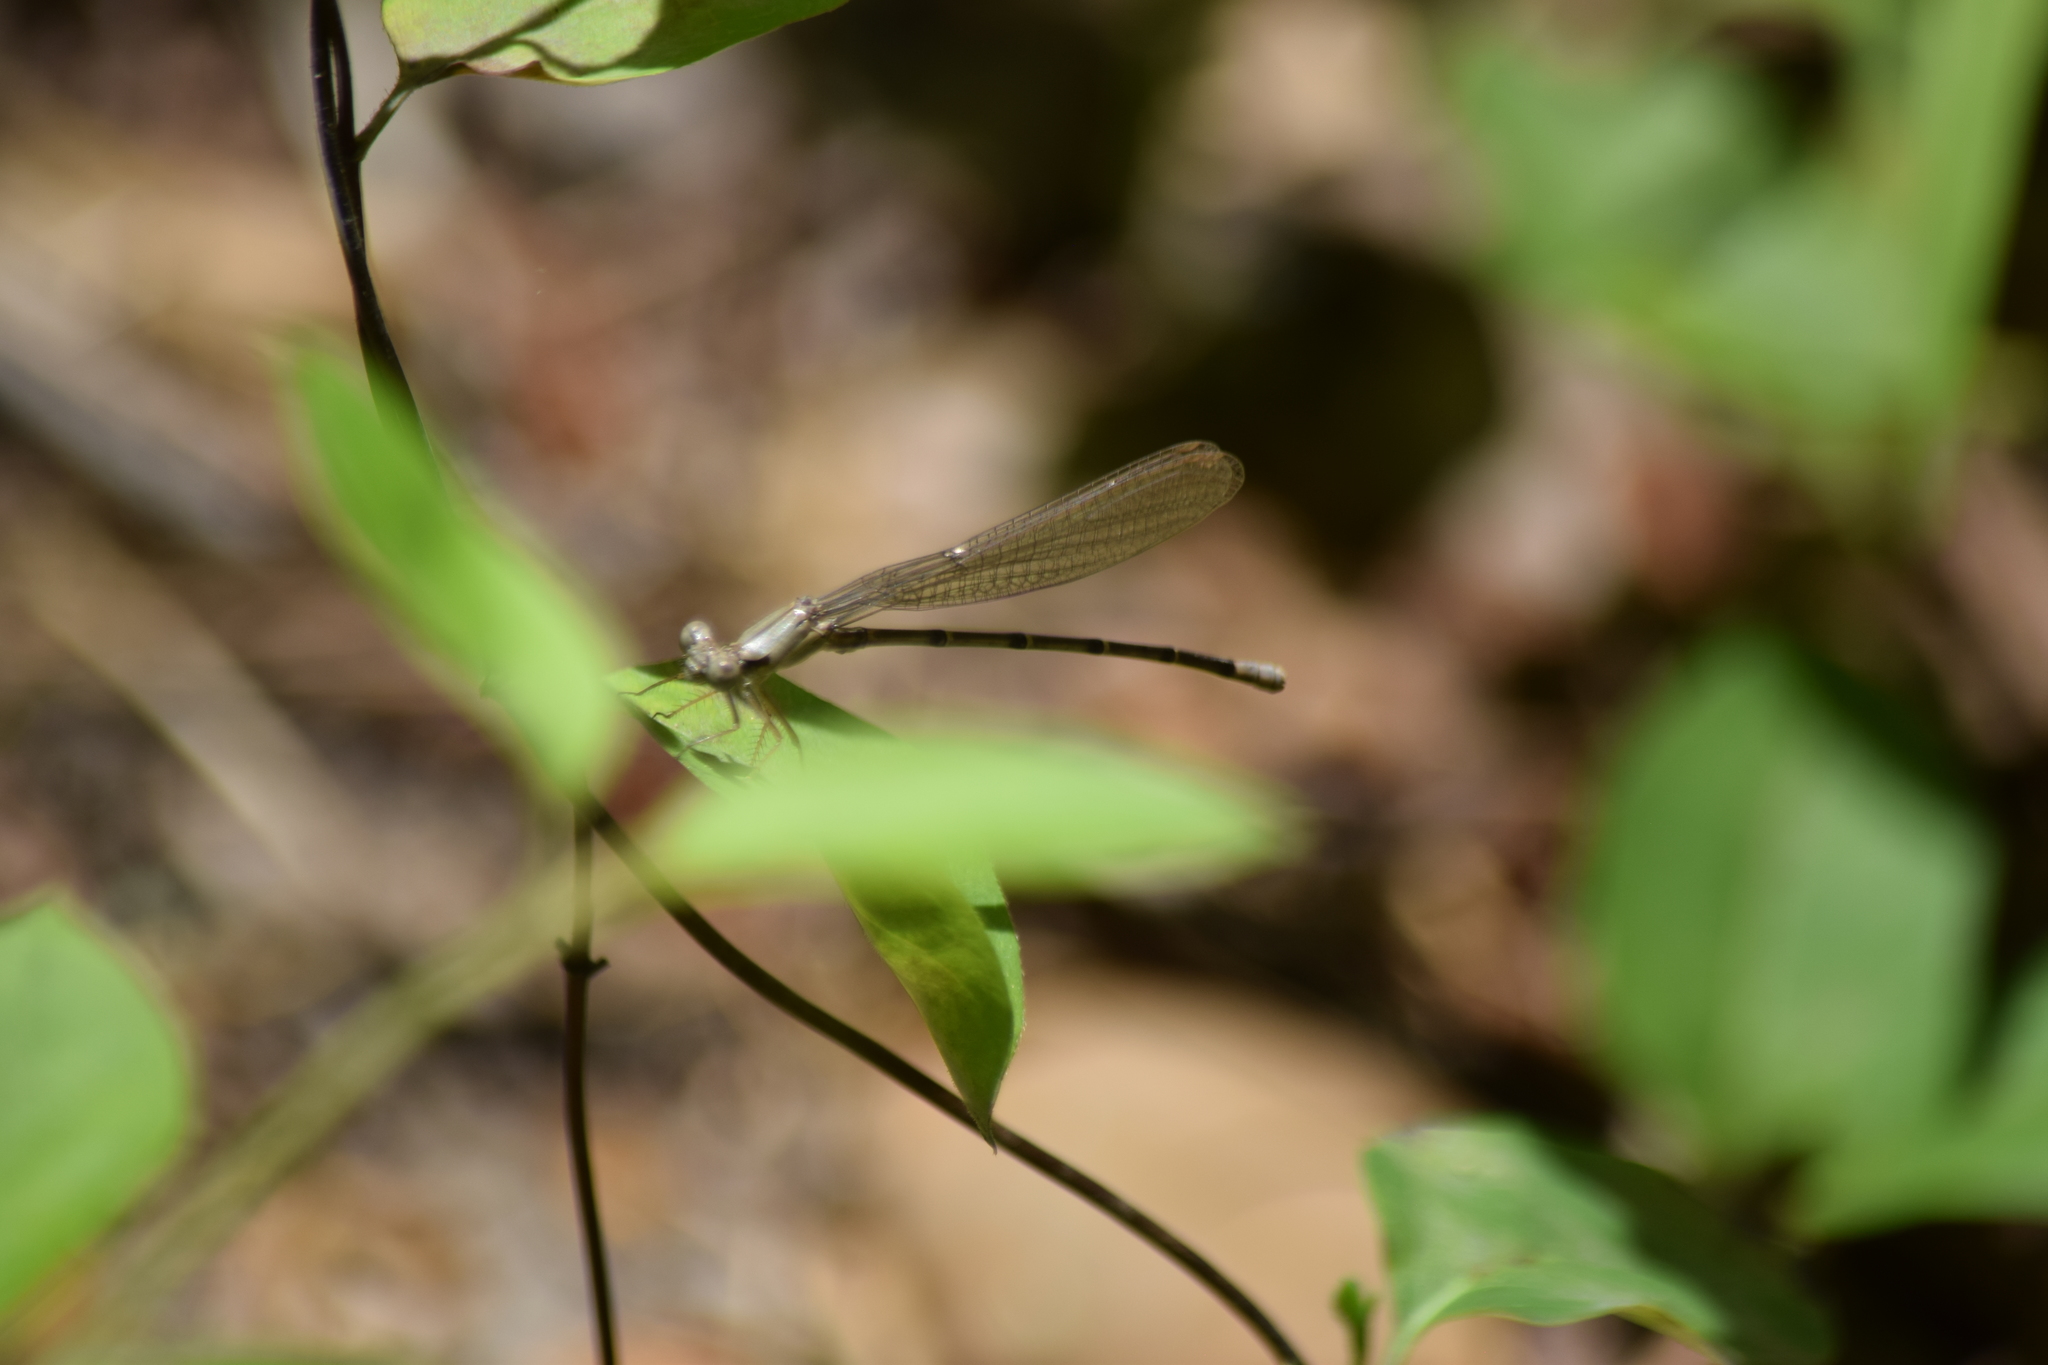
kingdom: Animalia
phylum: Arthropoda
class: Insecta
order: Odonata
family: Coenagrionidae
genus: Argia
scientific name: Argia apicalis
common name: Blue-fronted dancer
